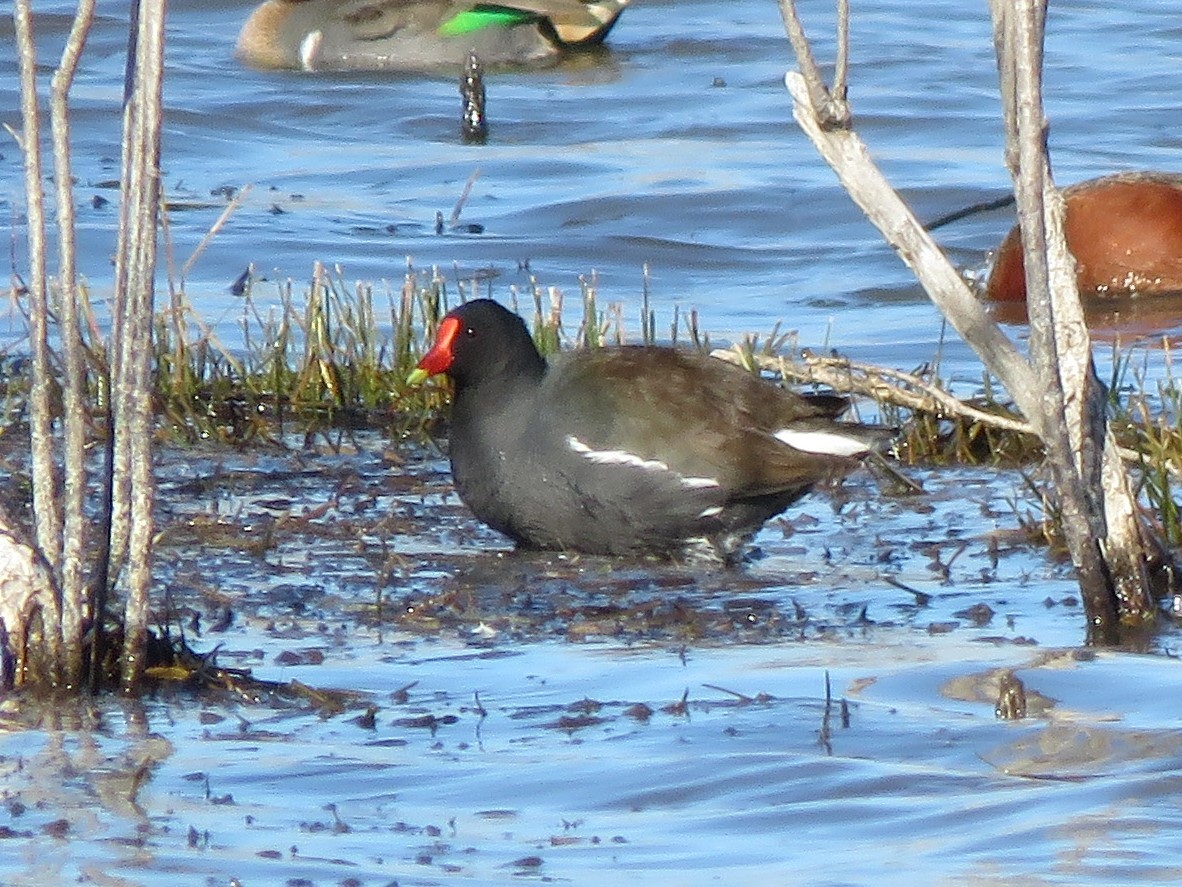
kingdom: Animalia
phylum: Chordata
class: Aves
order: Gruiformes
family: Rallidae
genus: Gallinula
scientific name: Gallinula chloropus
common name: Common moorhen
